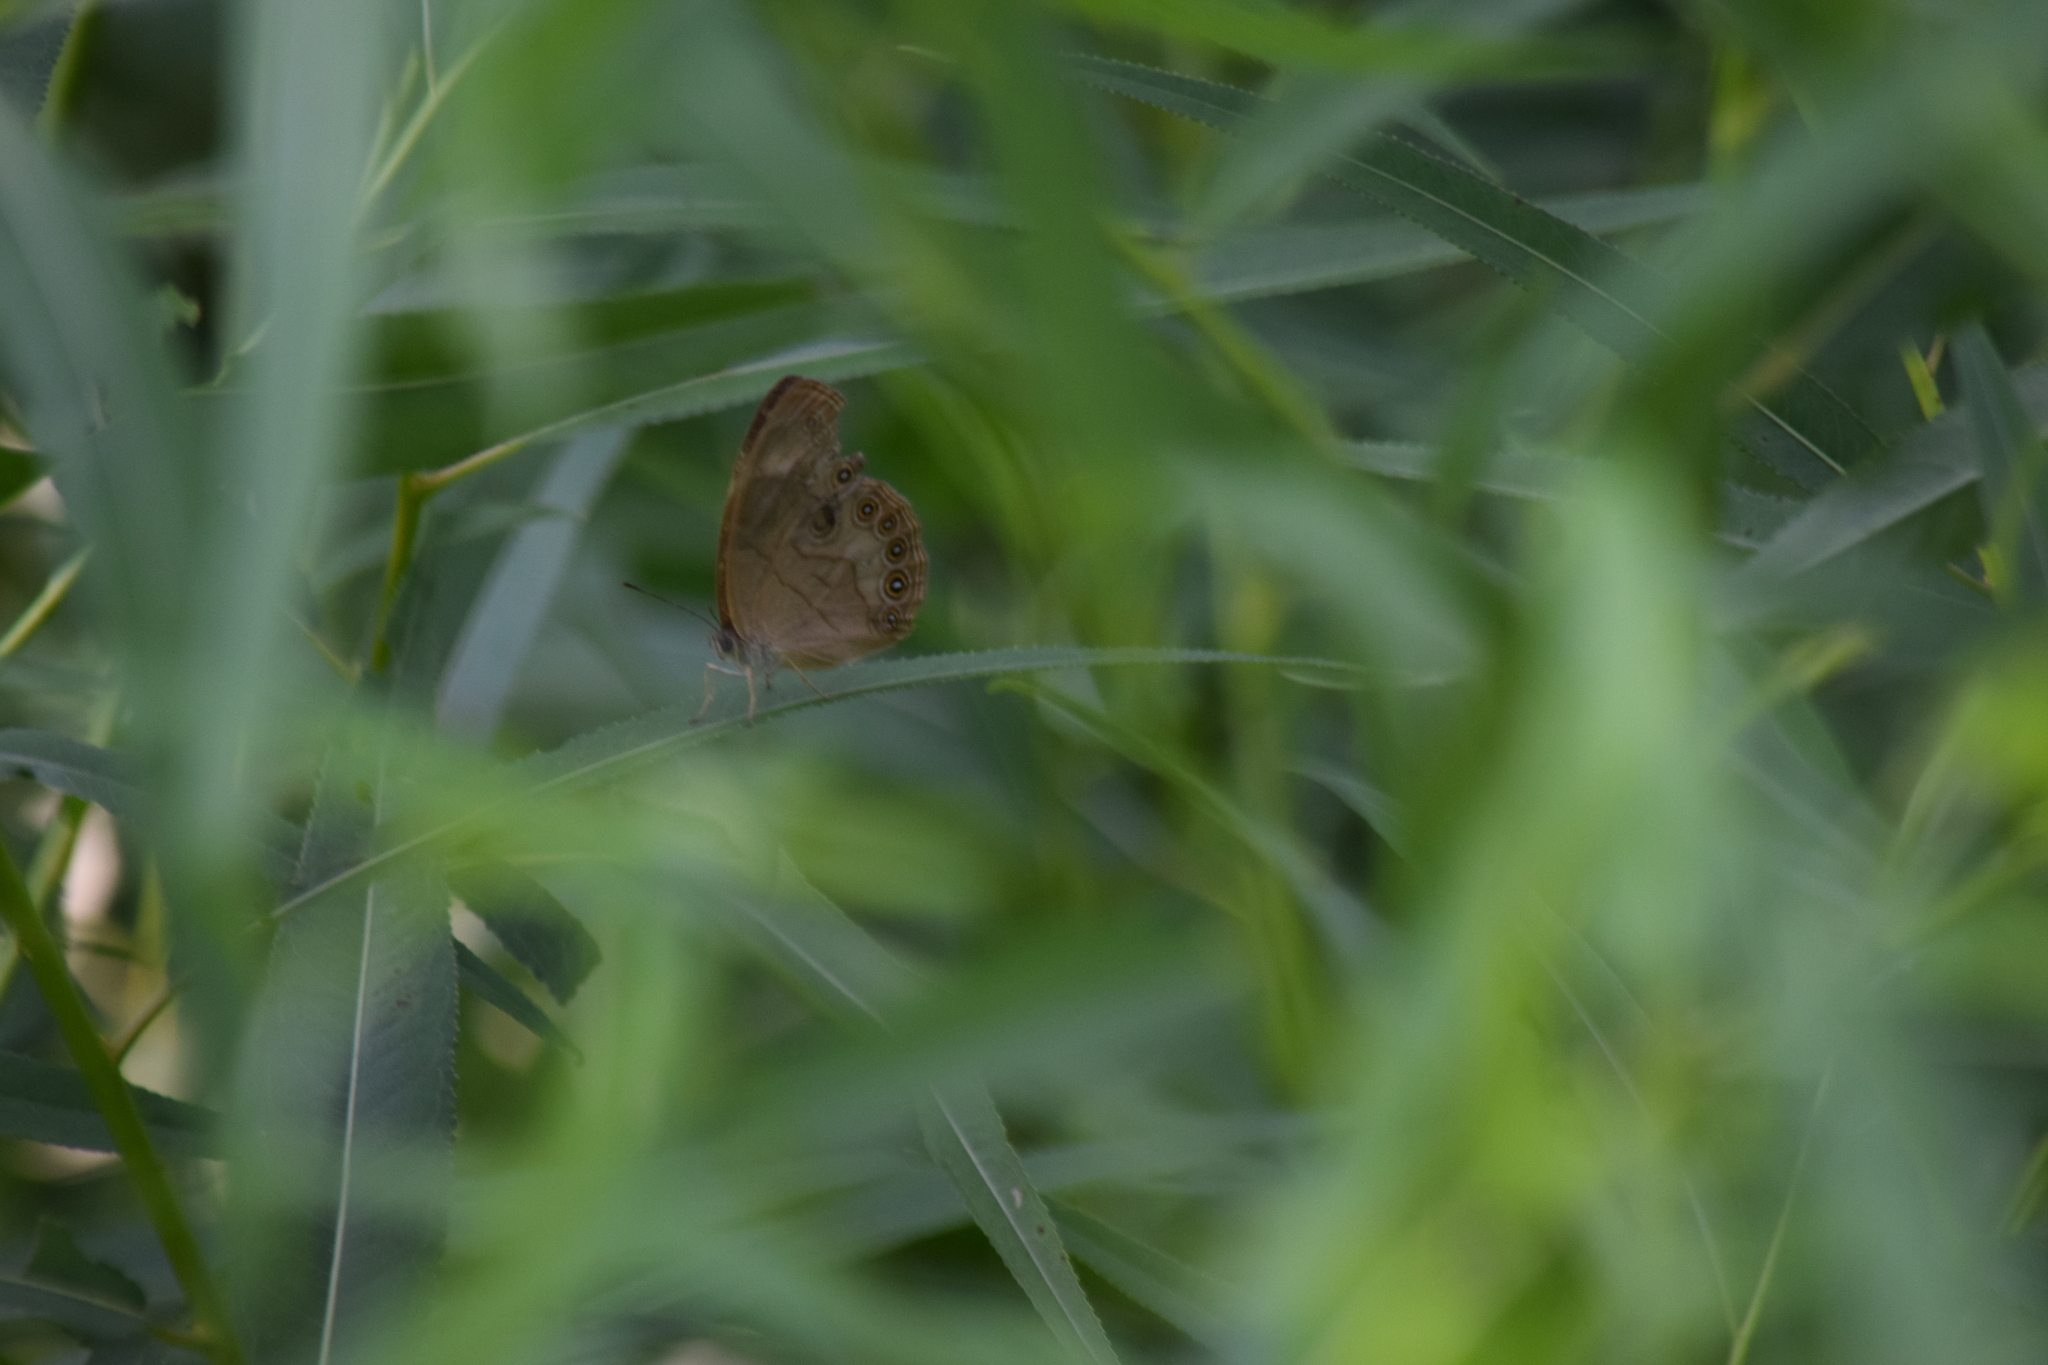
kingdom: Animalia
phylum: Arthropoda
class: Insecta
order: Lepidoptera
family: Nymphalidae
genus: Lethe
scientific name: Lethe eurydice
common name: Eyed brown
